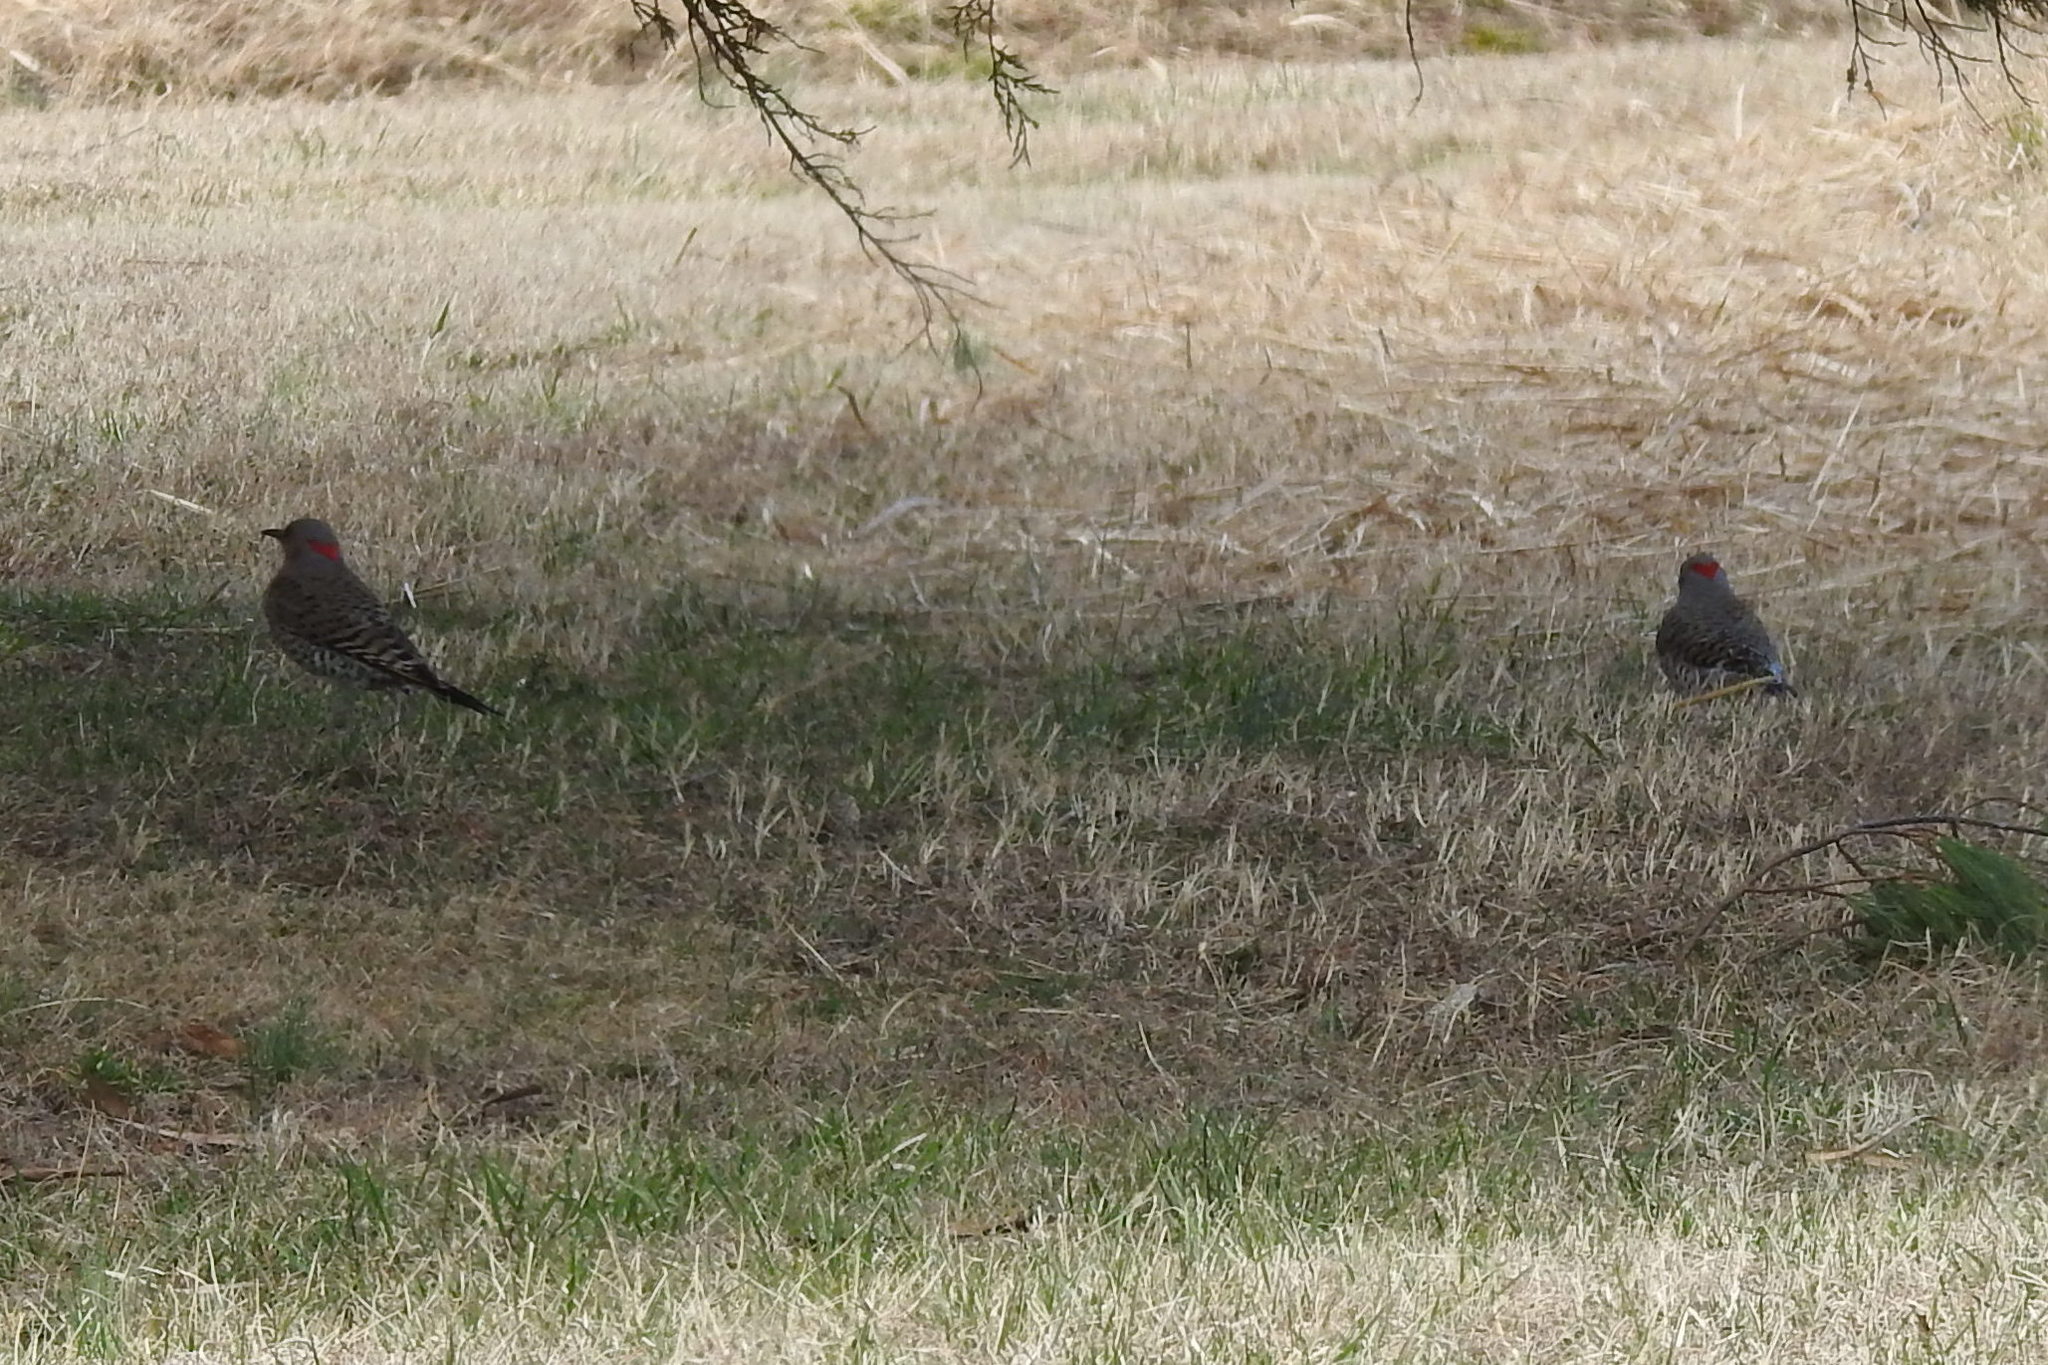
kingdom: Animalia
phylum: Chordata
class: Aves
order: Piciformes
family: Picidae
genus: Colaptes
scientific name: Colaptes auratus
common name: Northern flicker
